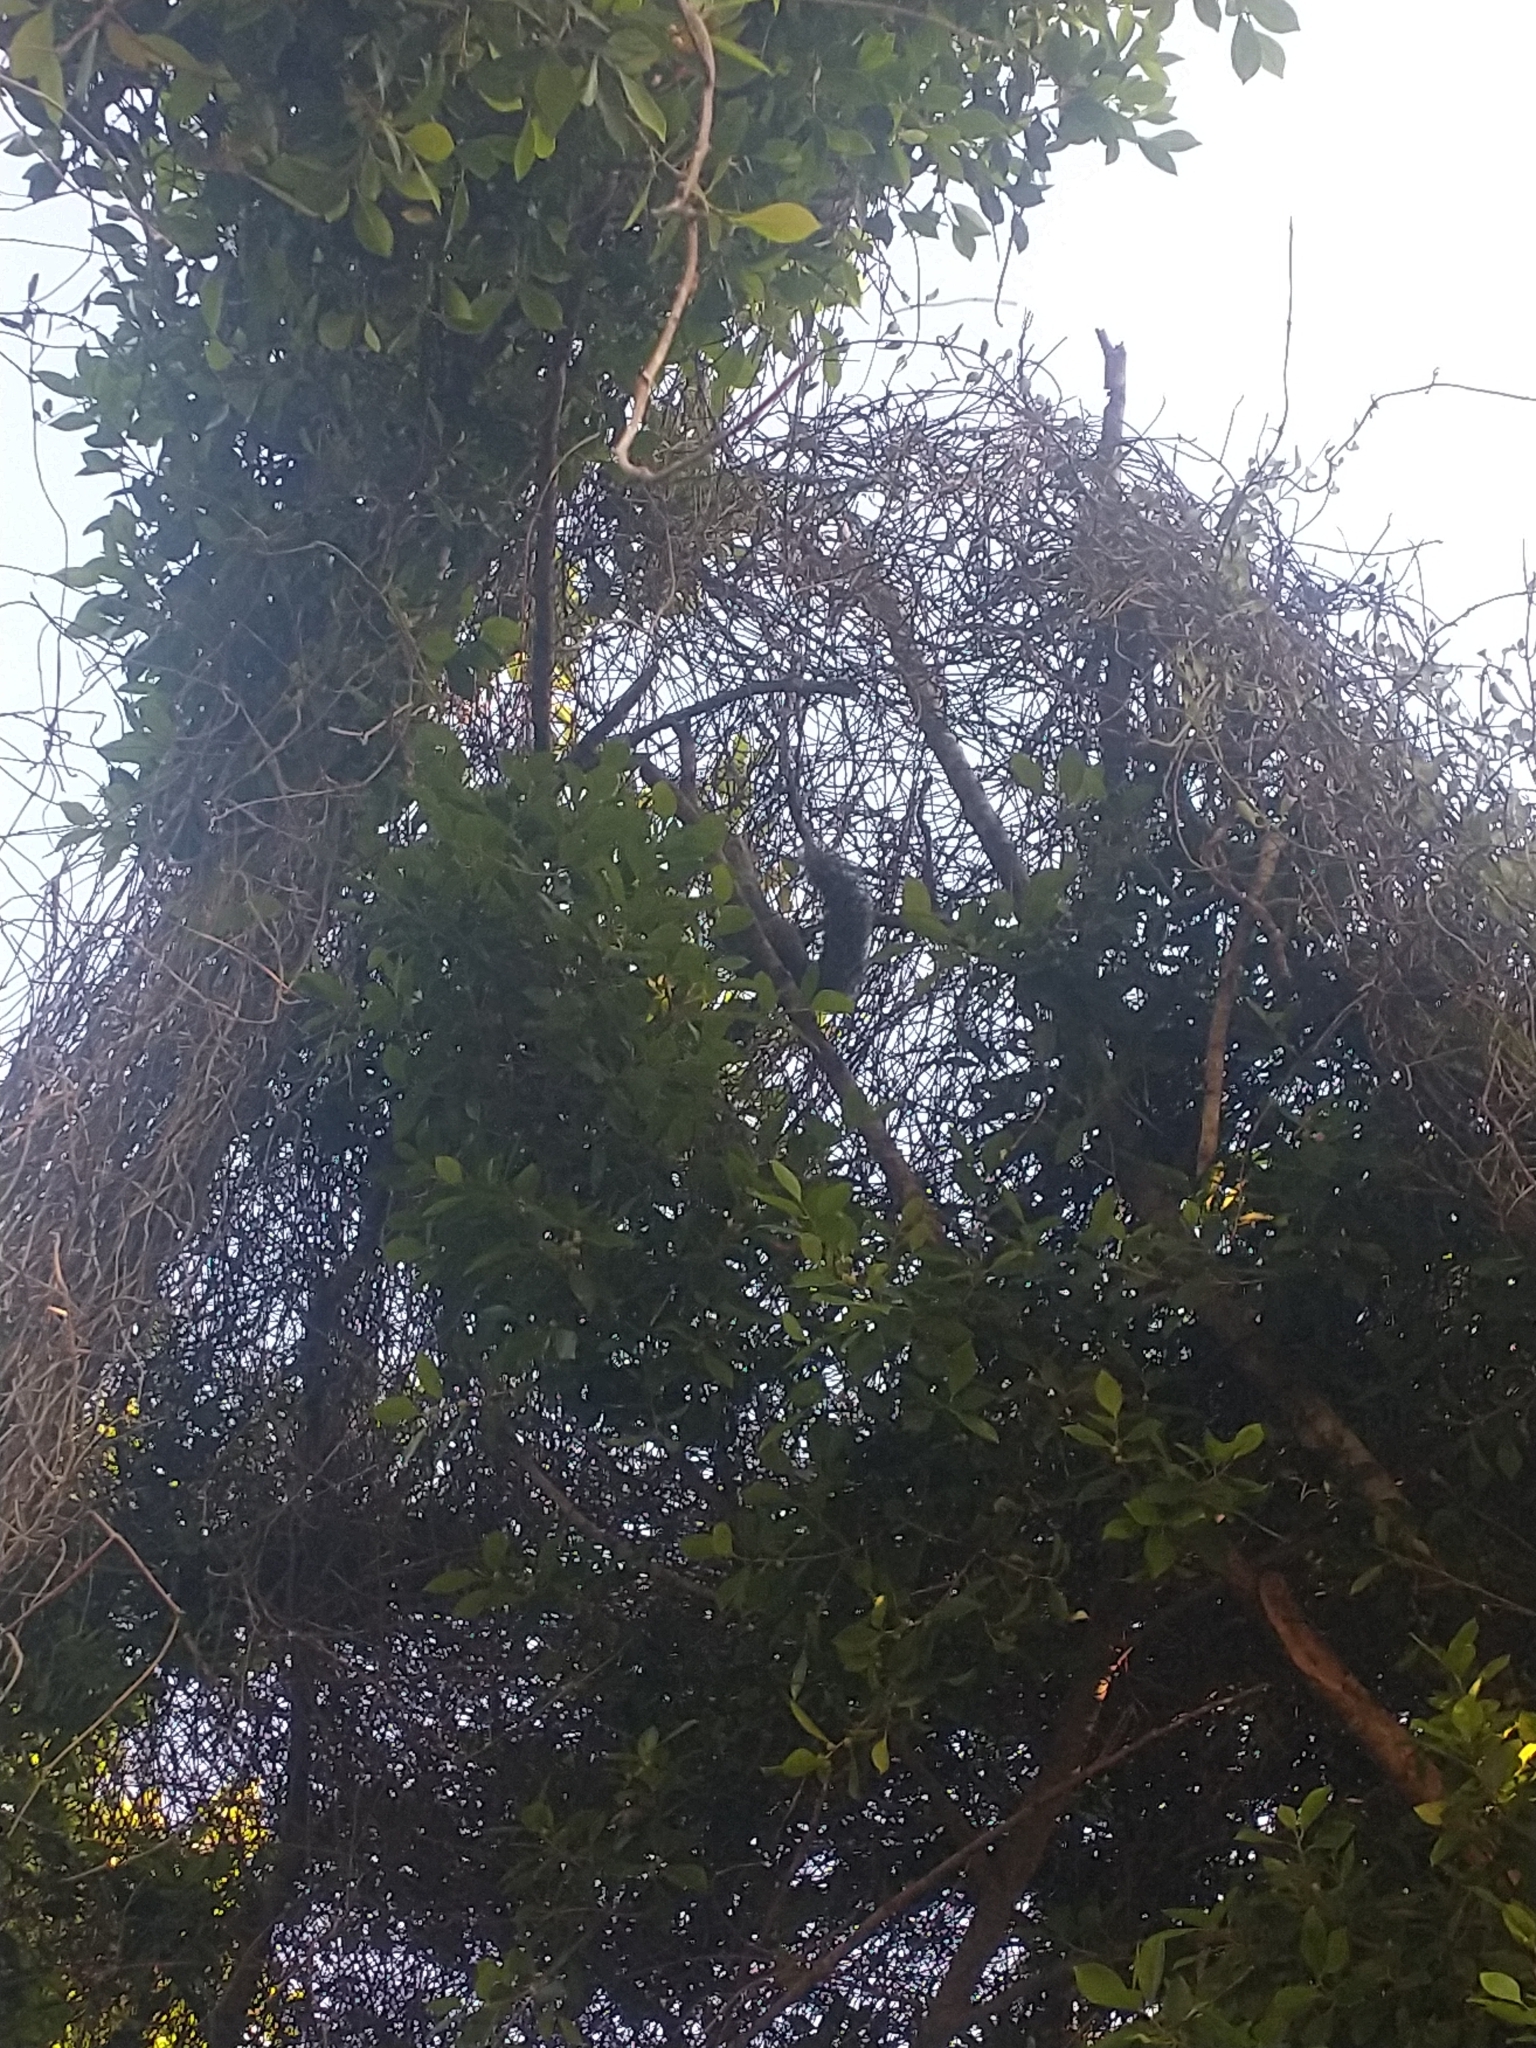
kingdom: Animalia
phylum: Chordata
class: Mammalia
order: Rodentia
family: Sciuridae
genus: Sciurus
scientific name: Sciurus yucatanensis
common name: Yucatan squirrel
